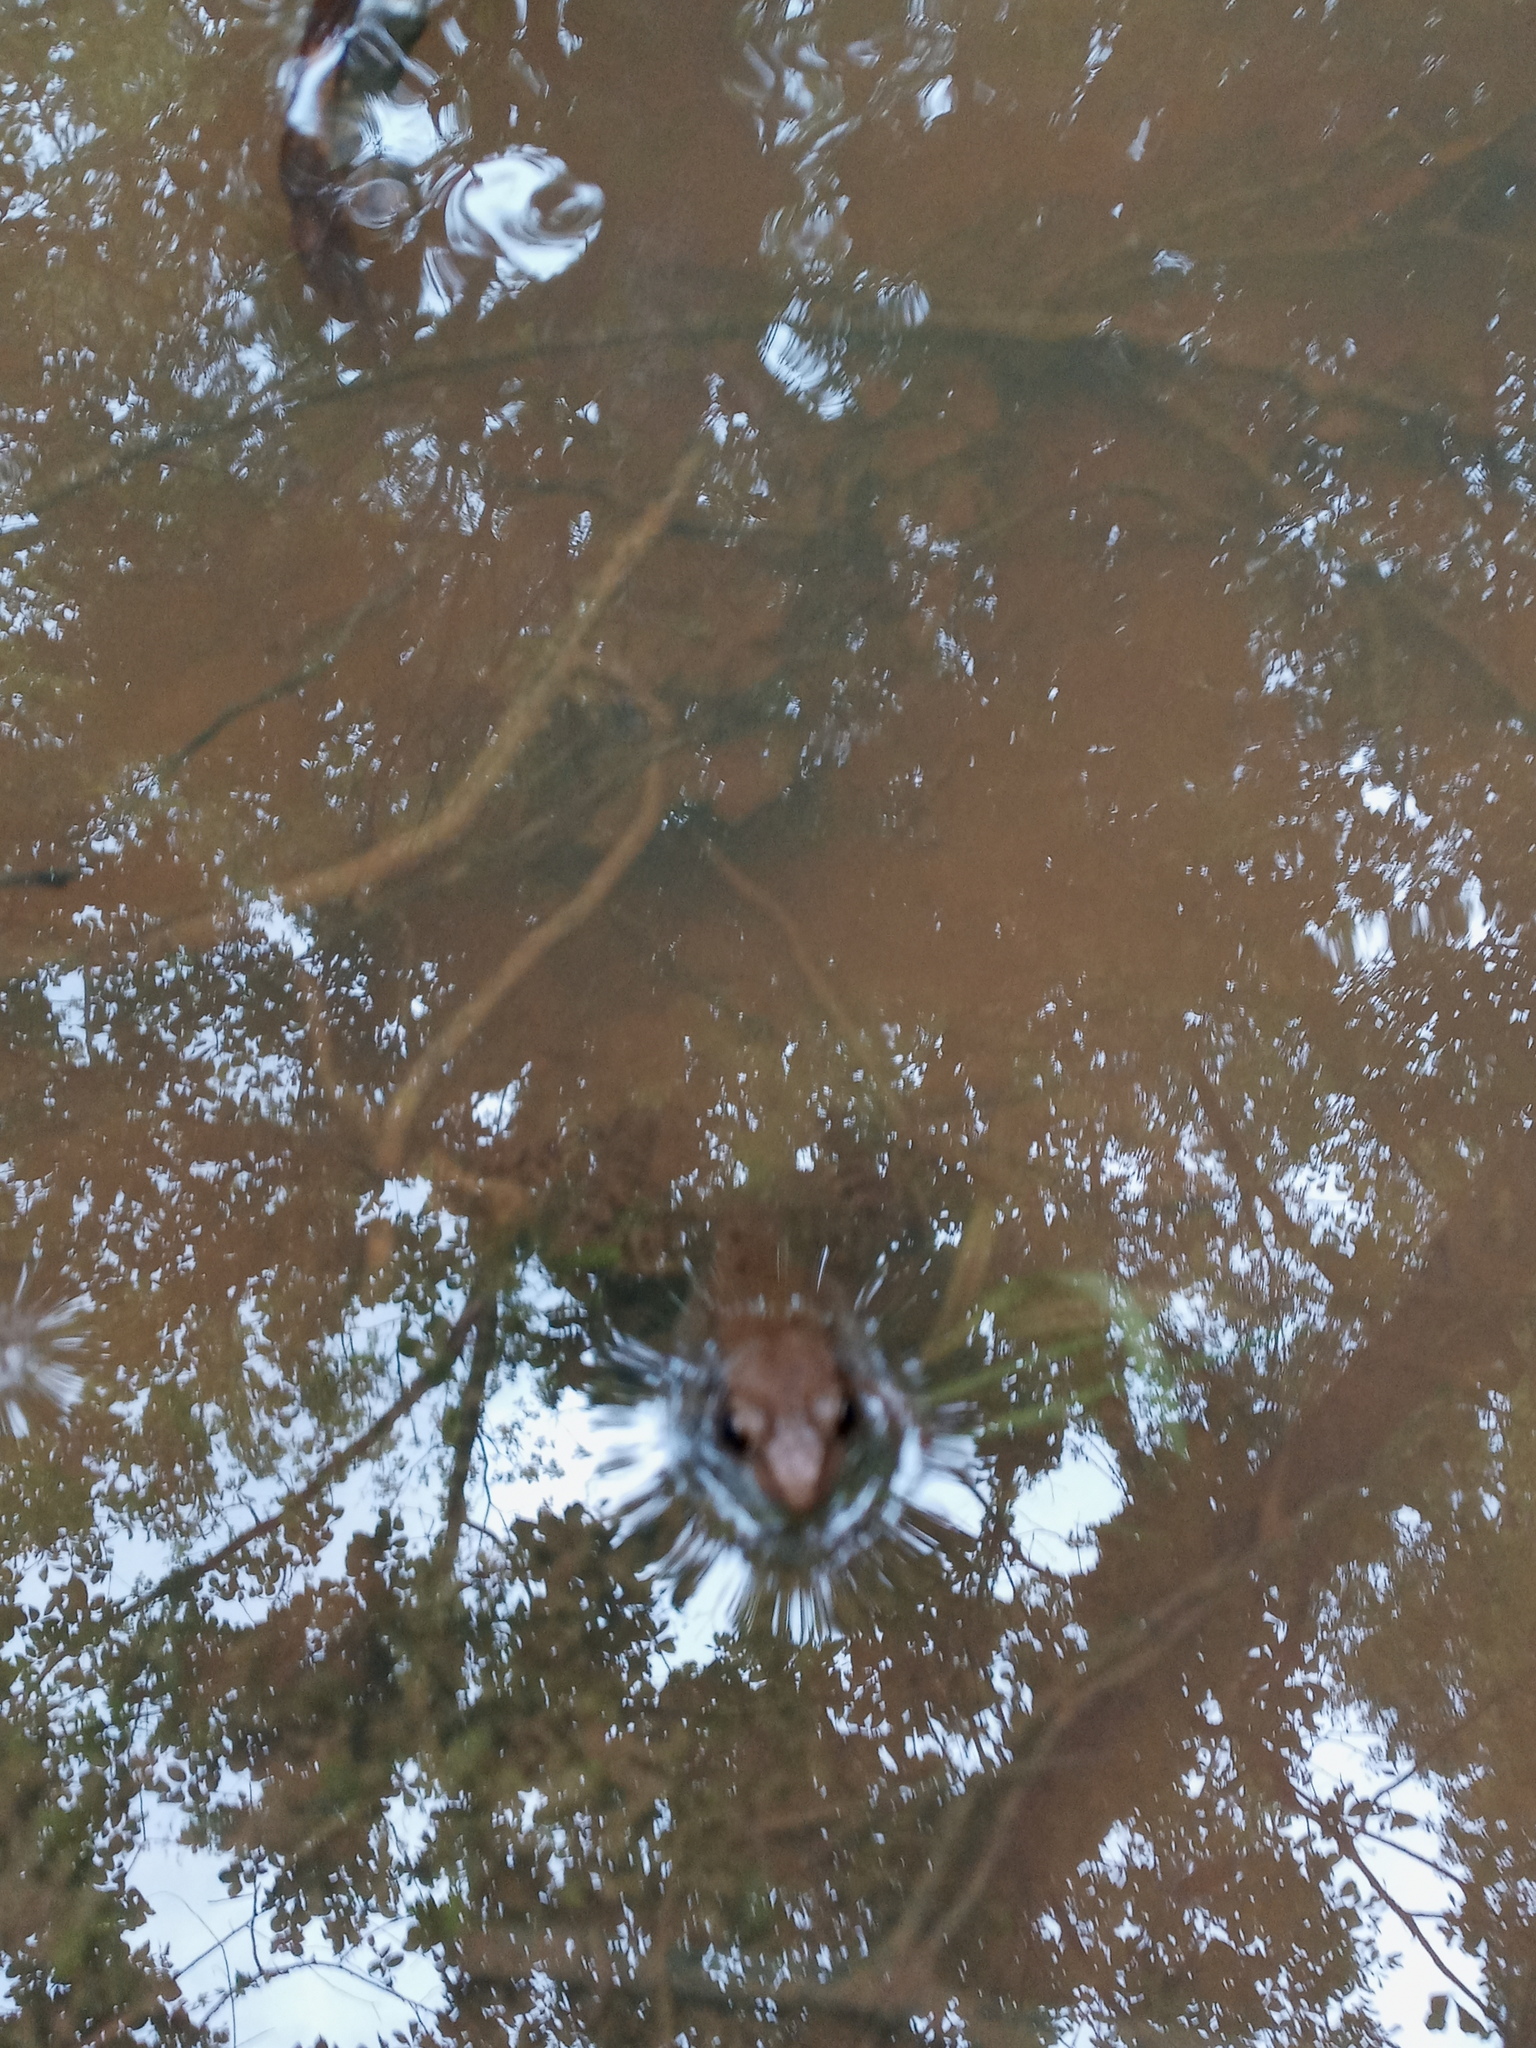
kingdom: Animalia
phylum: Chordata
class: Amphibia
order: Anura
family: Ranidae
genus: Lithobates
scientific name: Lithobates clamitans
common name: Green frog
